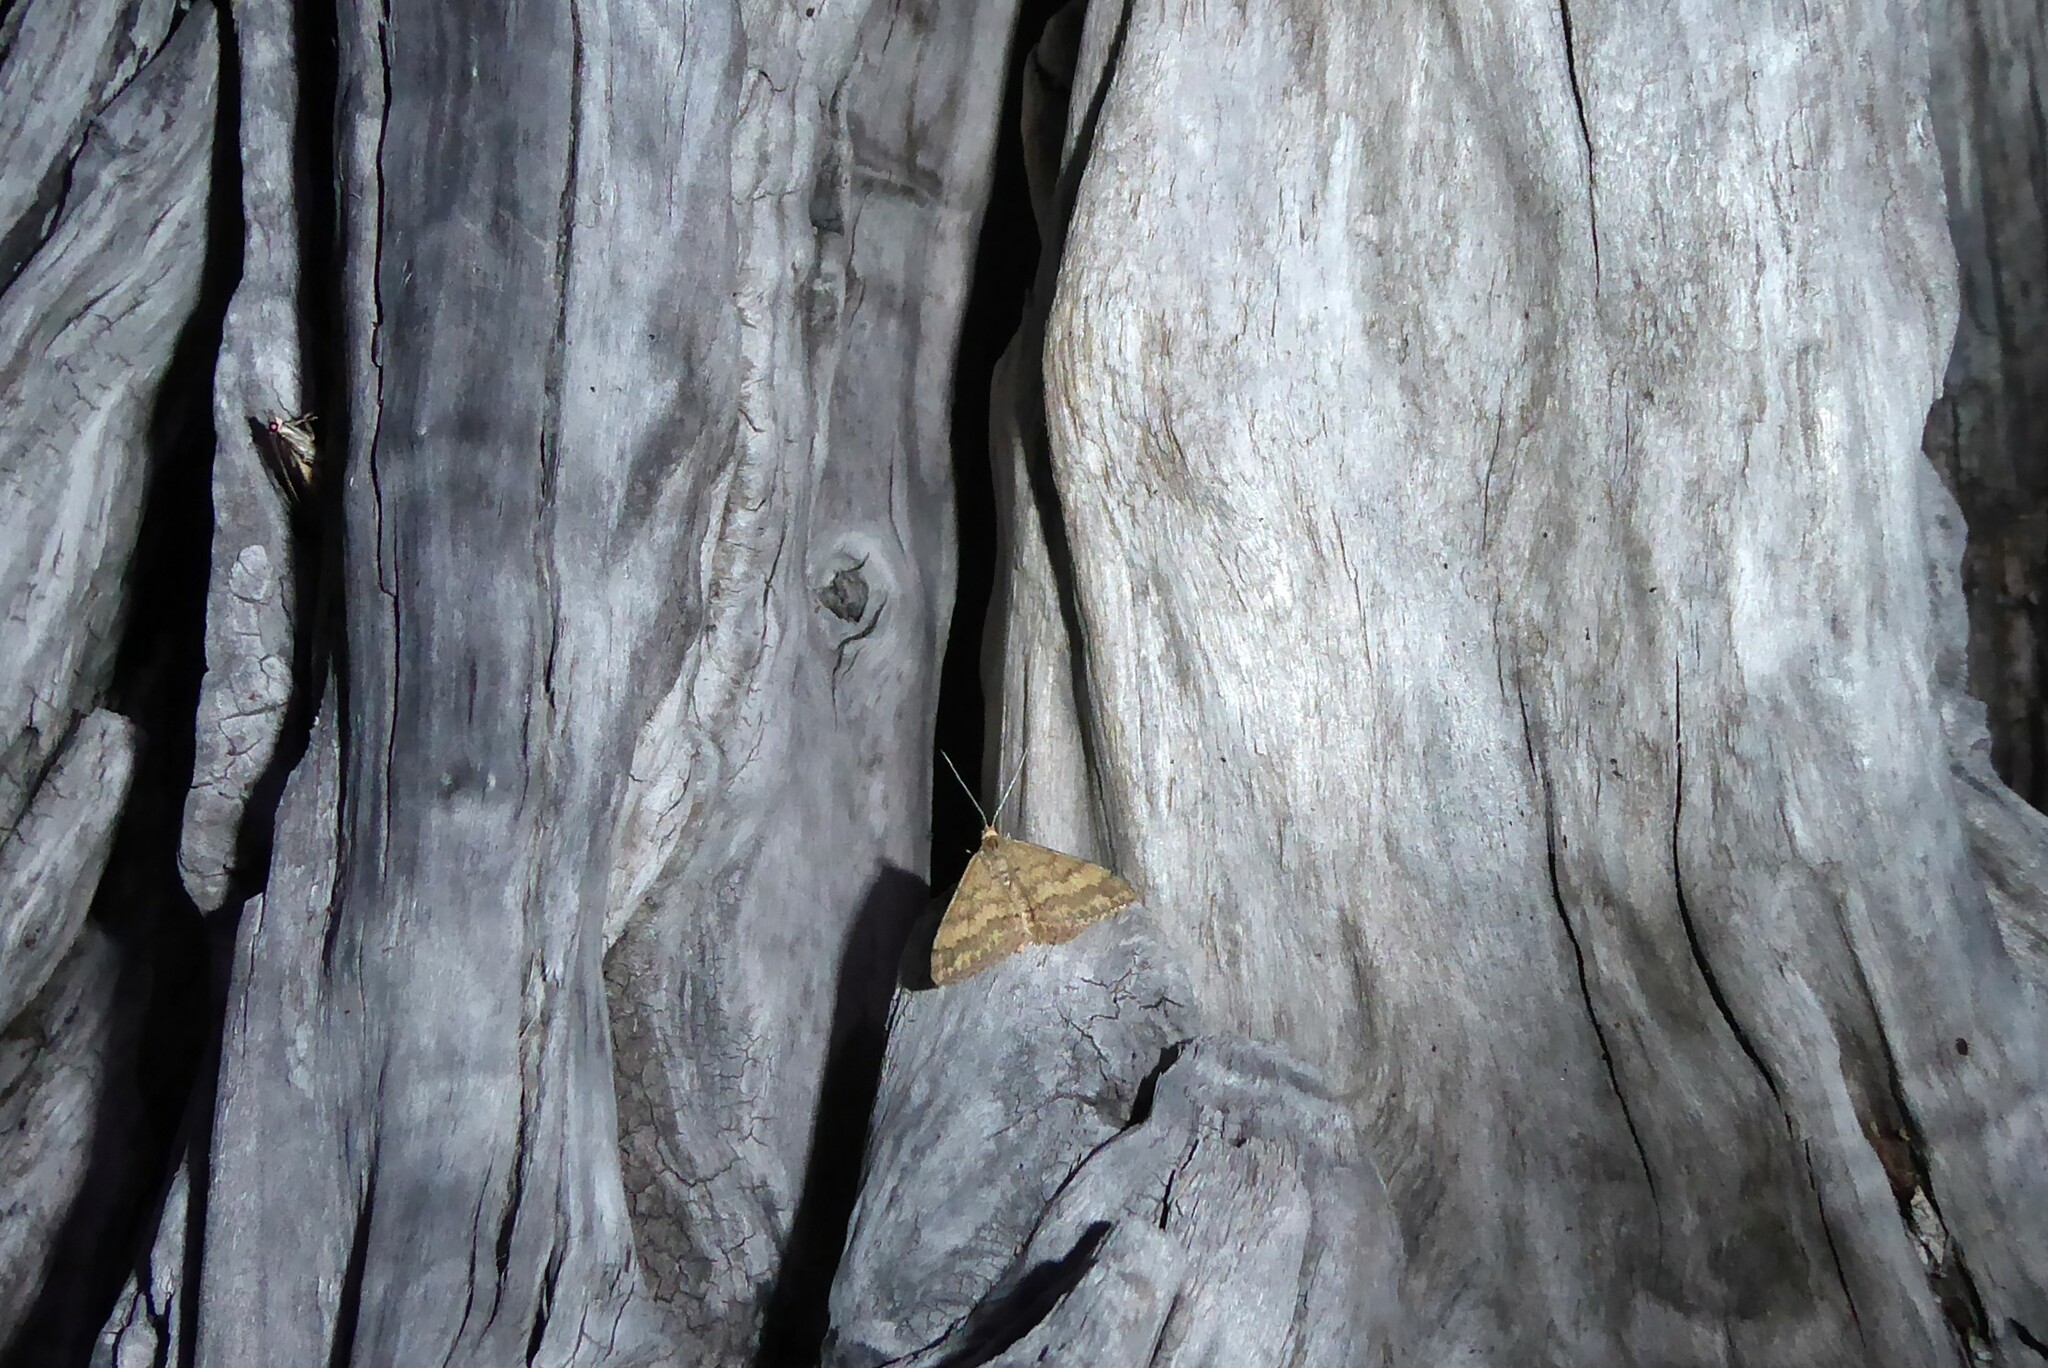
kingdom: Animalia
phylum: Arthropoda
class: Insecta
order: Lepidoptera
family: Geometridae
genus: Scopula
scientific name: Scopula rubraria
